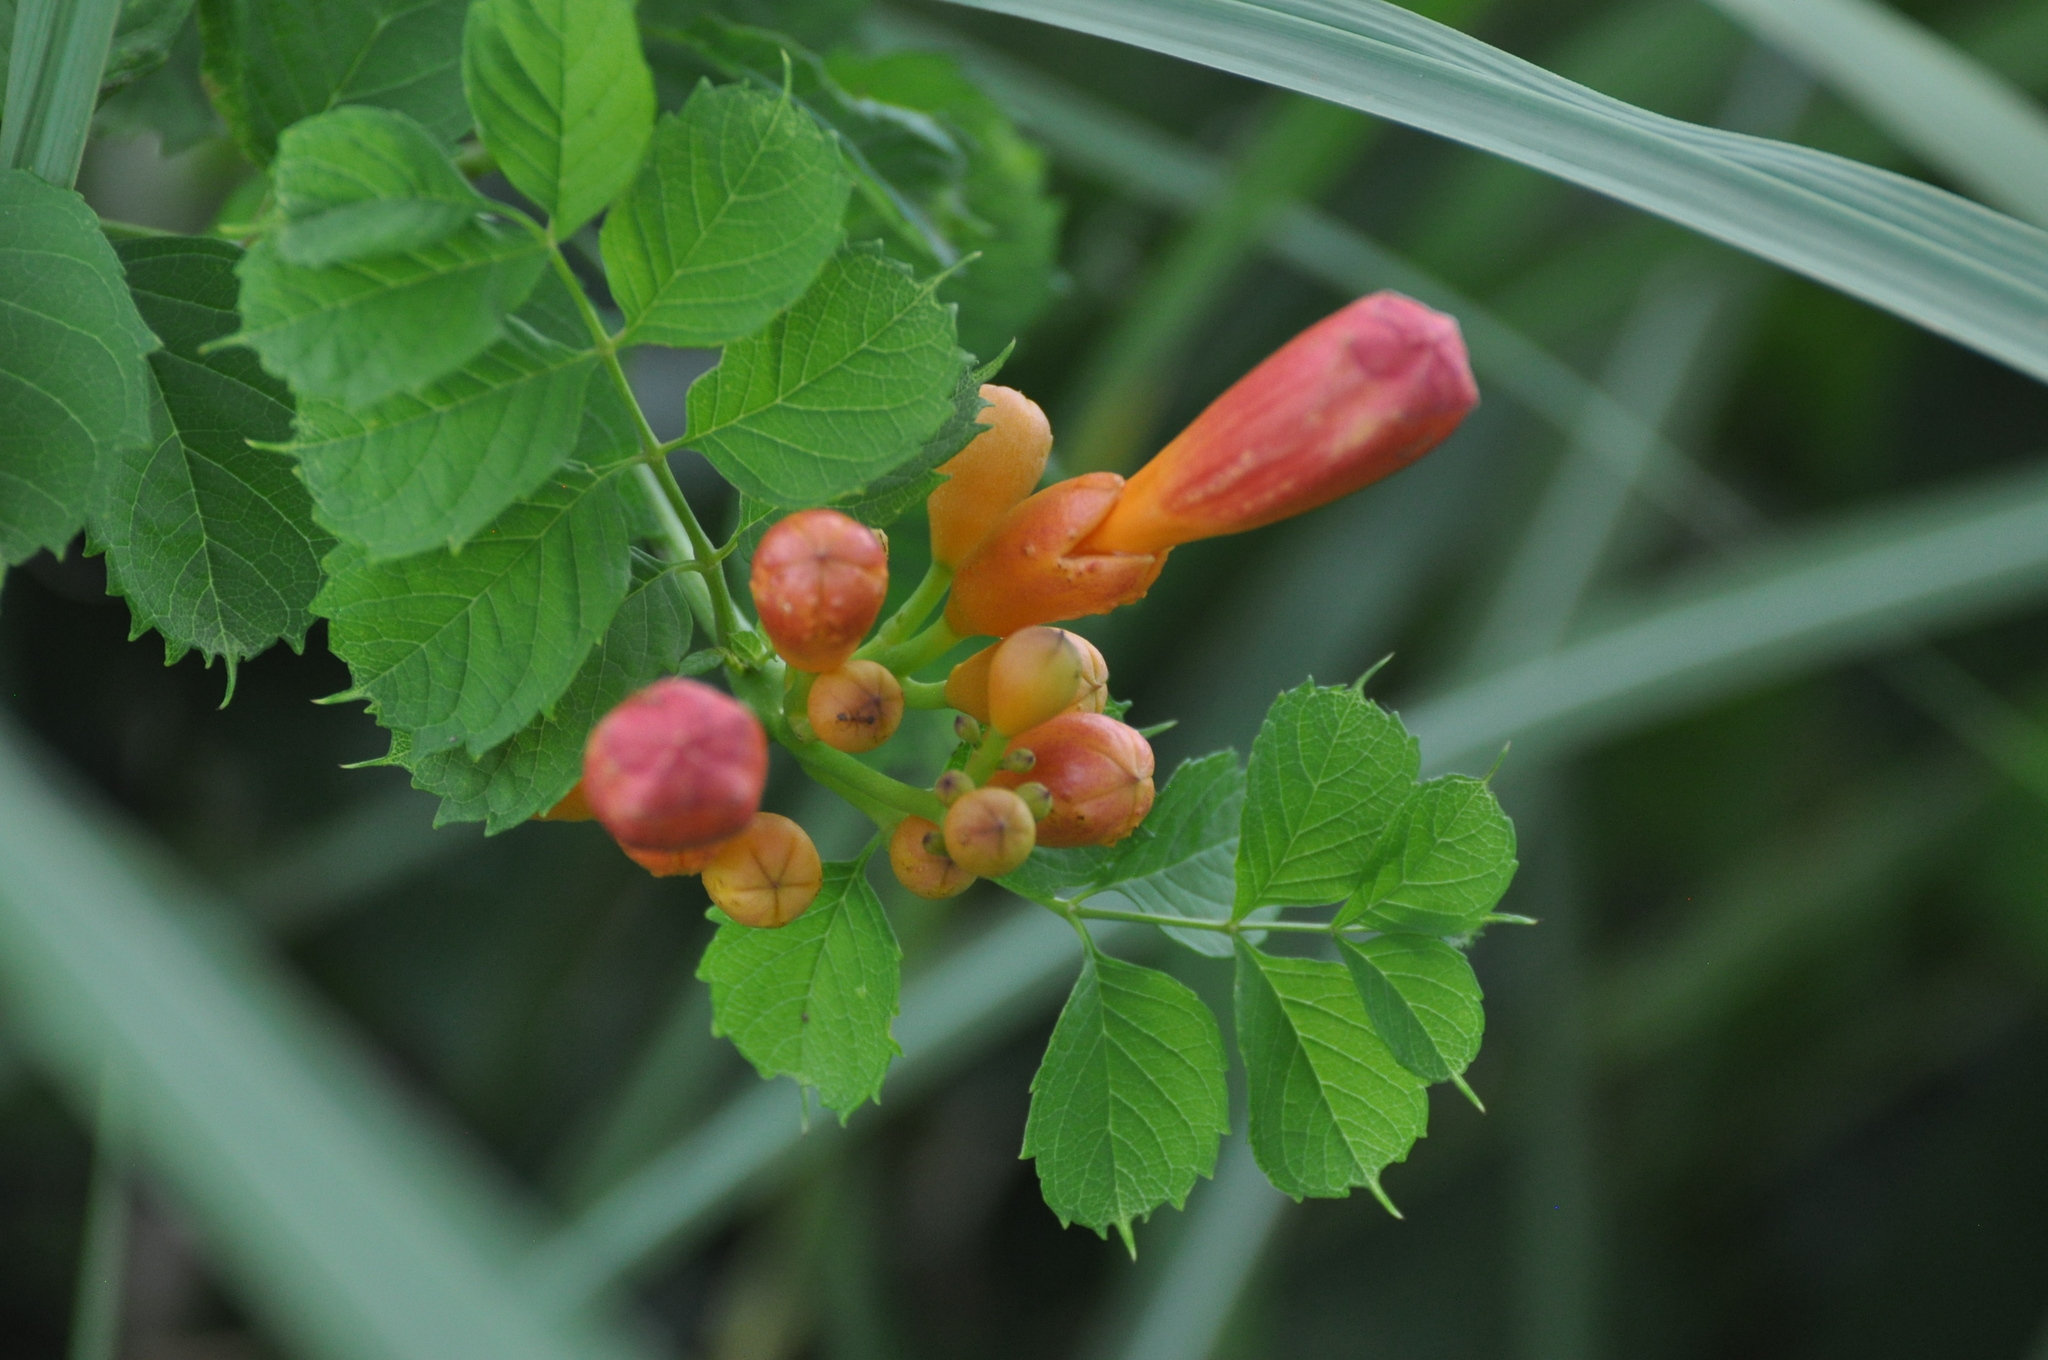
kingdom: Plantae
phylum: Tracheophyta
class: Magnoliopsida
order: Lamiales
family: Bignoniaceae
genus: Campsis
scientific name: Campsis radicans
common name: Trumpet-creeper
